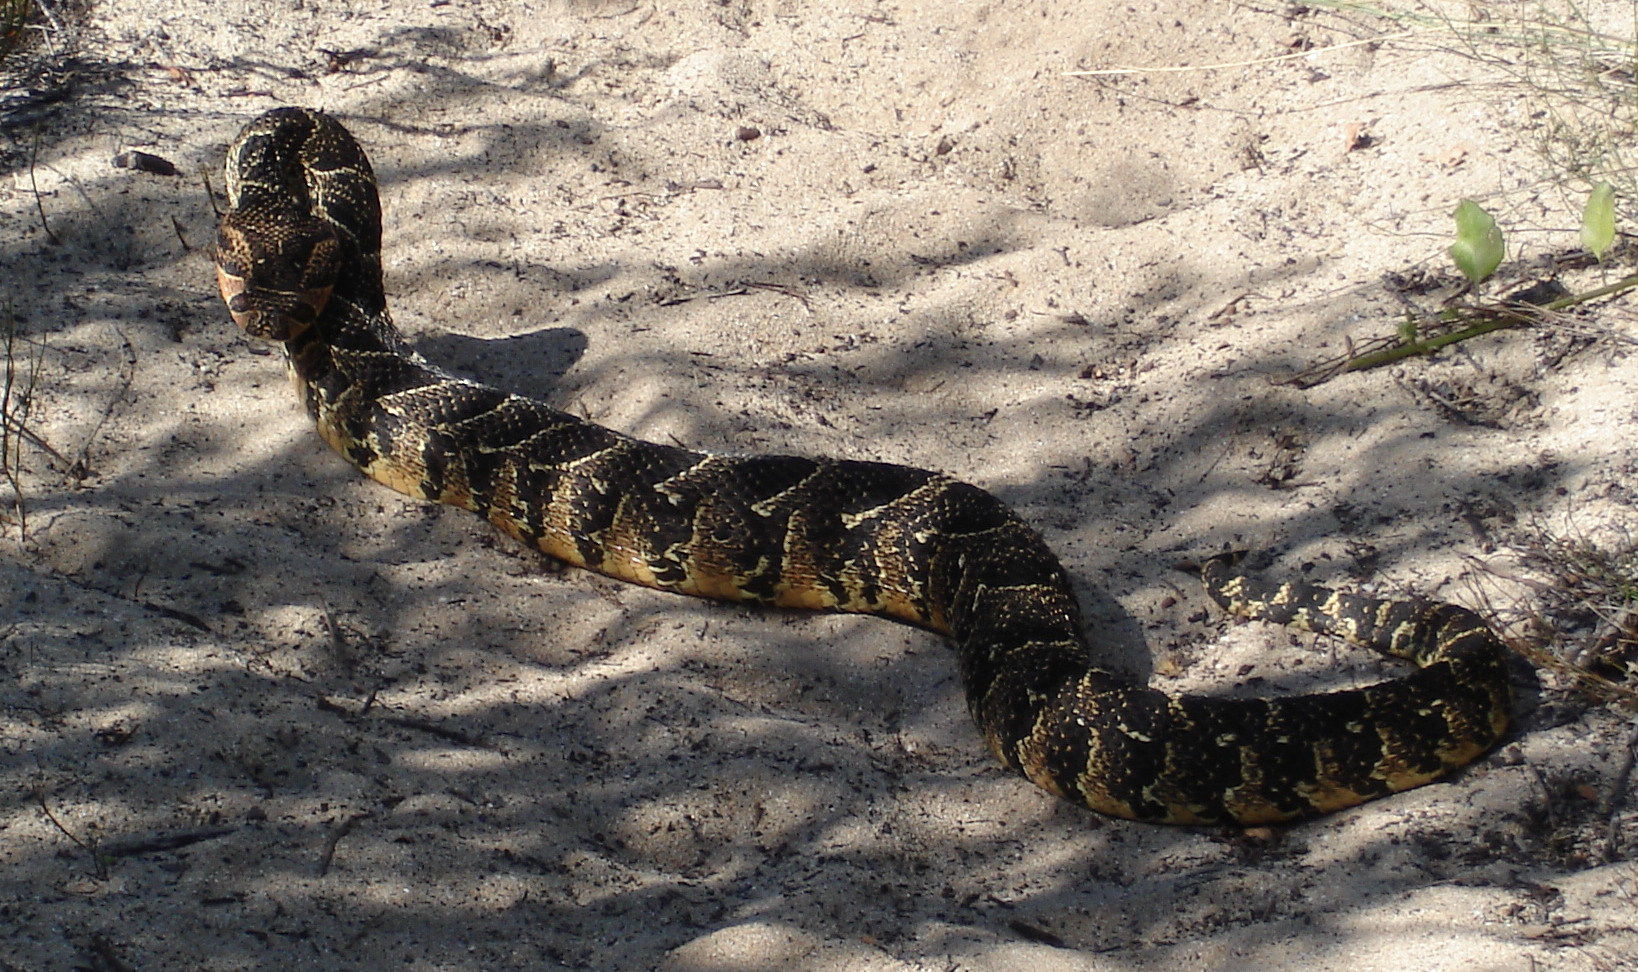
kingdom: Animalia
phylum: Chordata
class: Squamata
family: Viperidae
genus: Bitis
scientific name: Bitis arietans
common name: Puff adder
